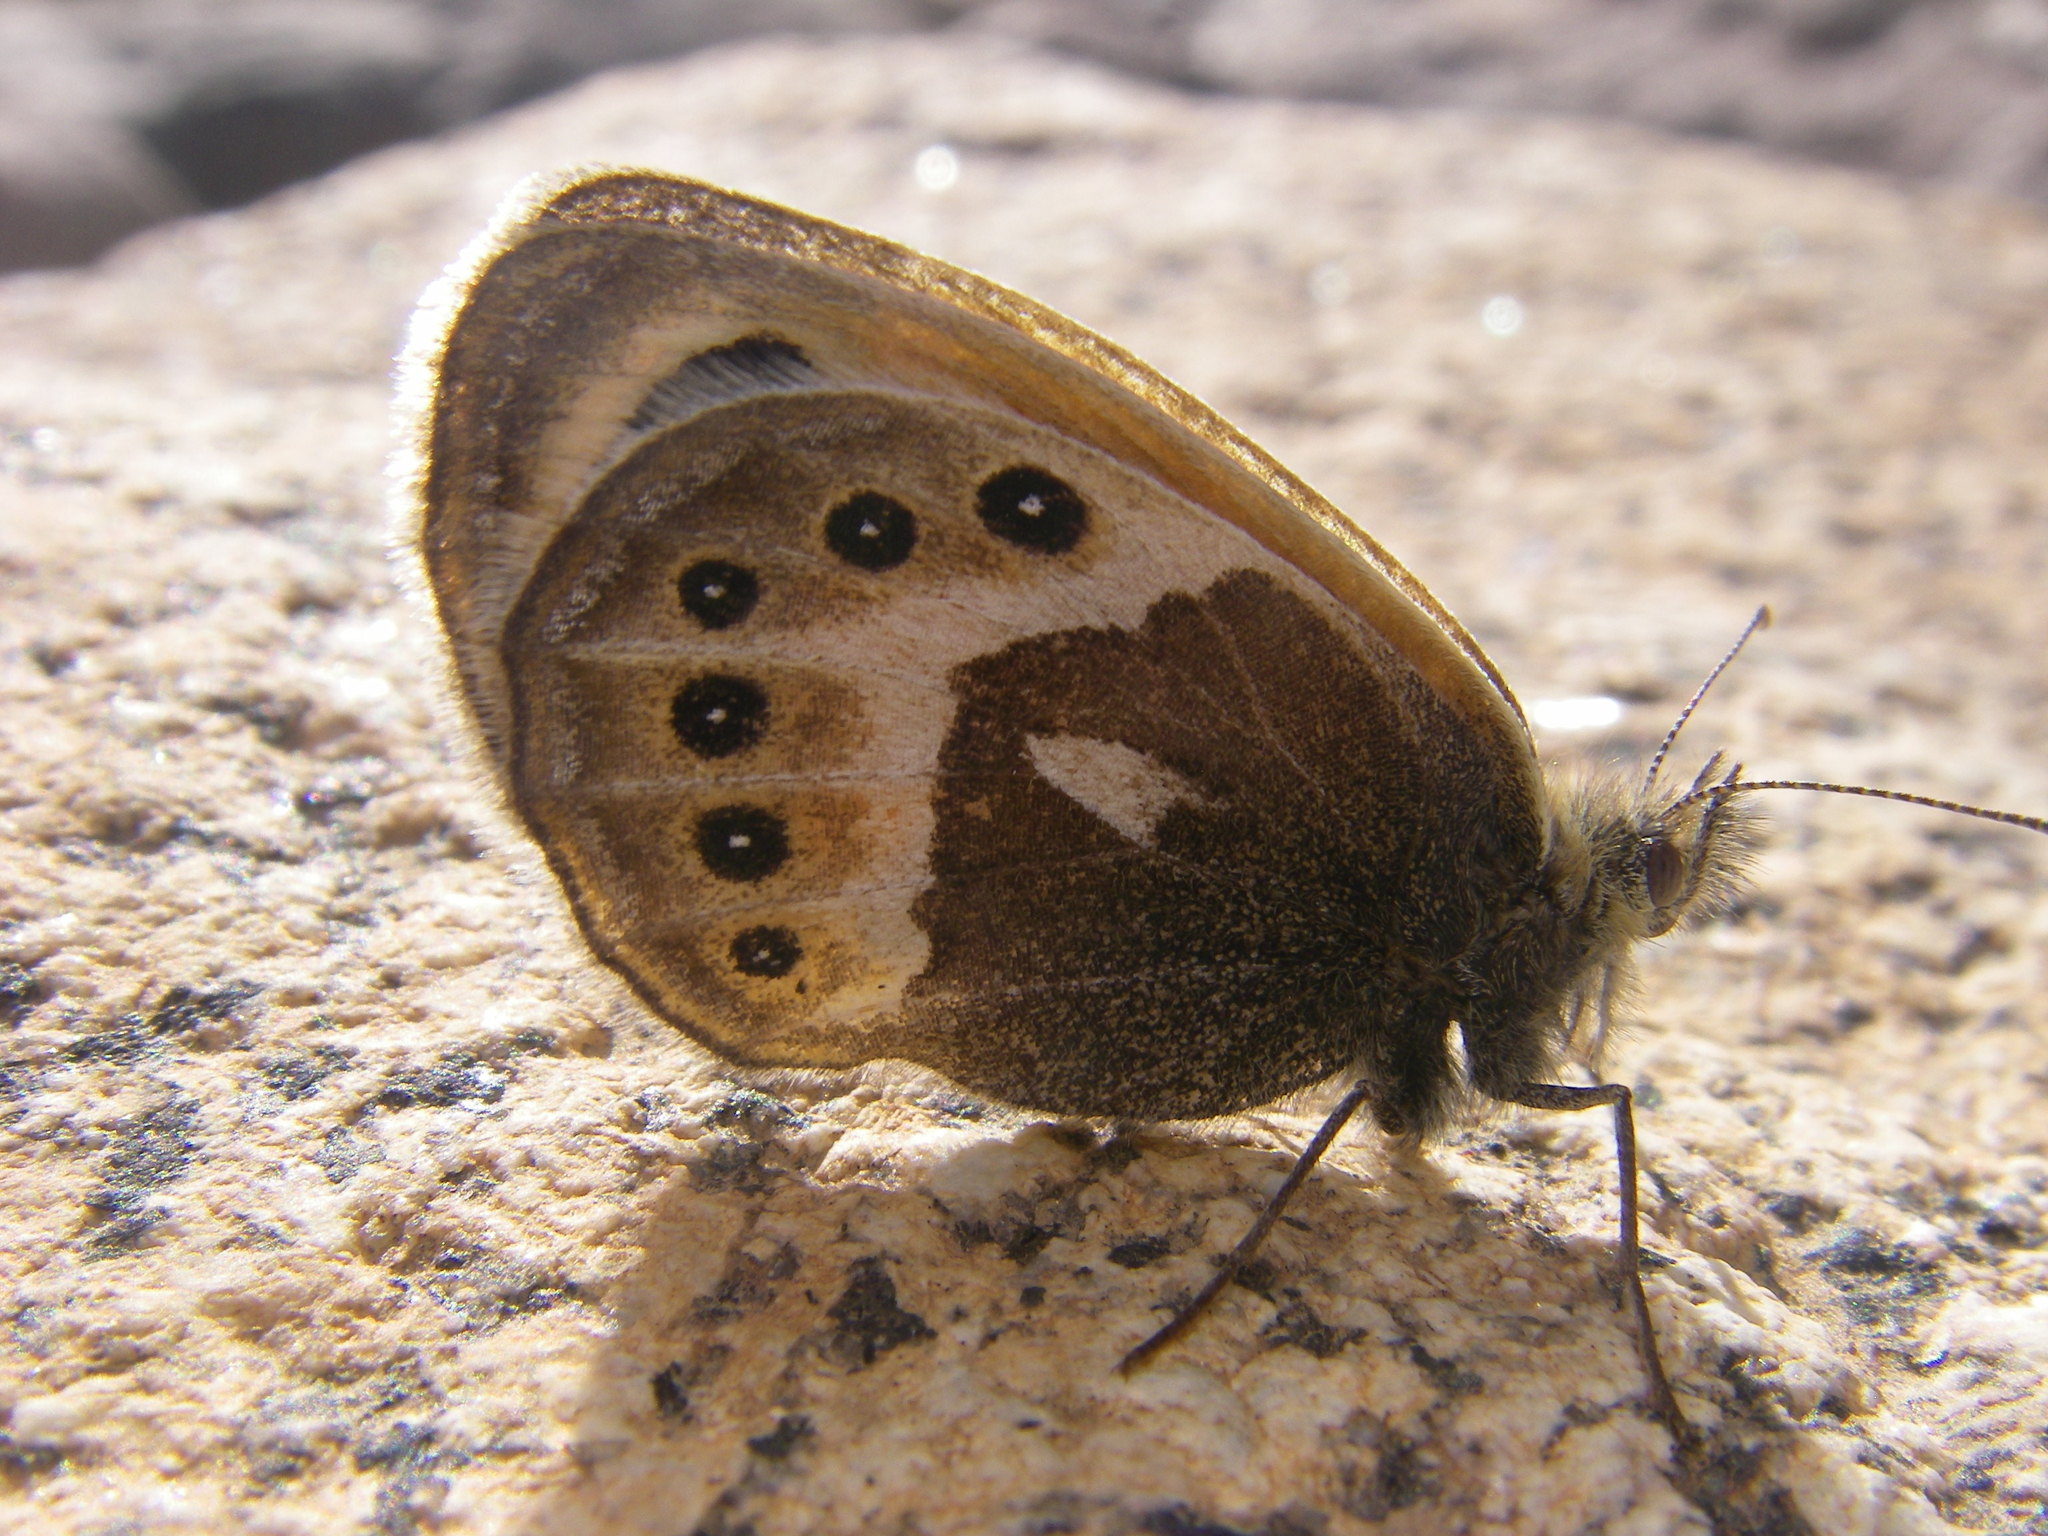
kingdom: Animalia
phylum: Arthropoda
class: Insecta
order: Lepidoptera
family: Nymphalidae
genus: Coenonympha
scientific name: Coenonympha vaucheri
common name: Vaucher's heath
